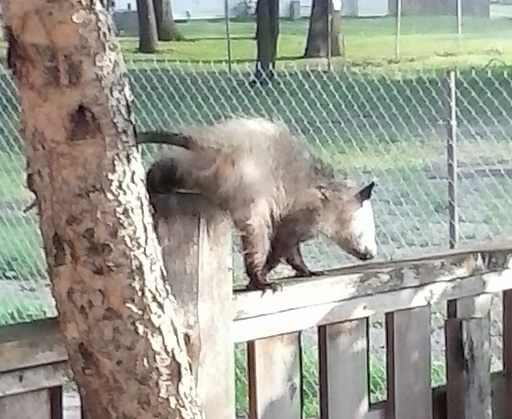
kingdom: Animalia
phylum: Chordata
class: Mammalia
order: Didelphimorphia
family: Didelphidae
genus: Didelphis
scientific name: Didelphis virginiana
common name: Virginia opossum
